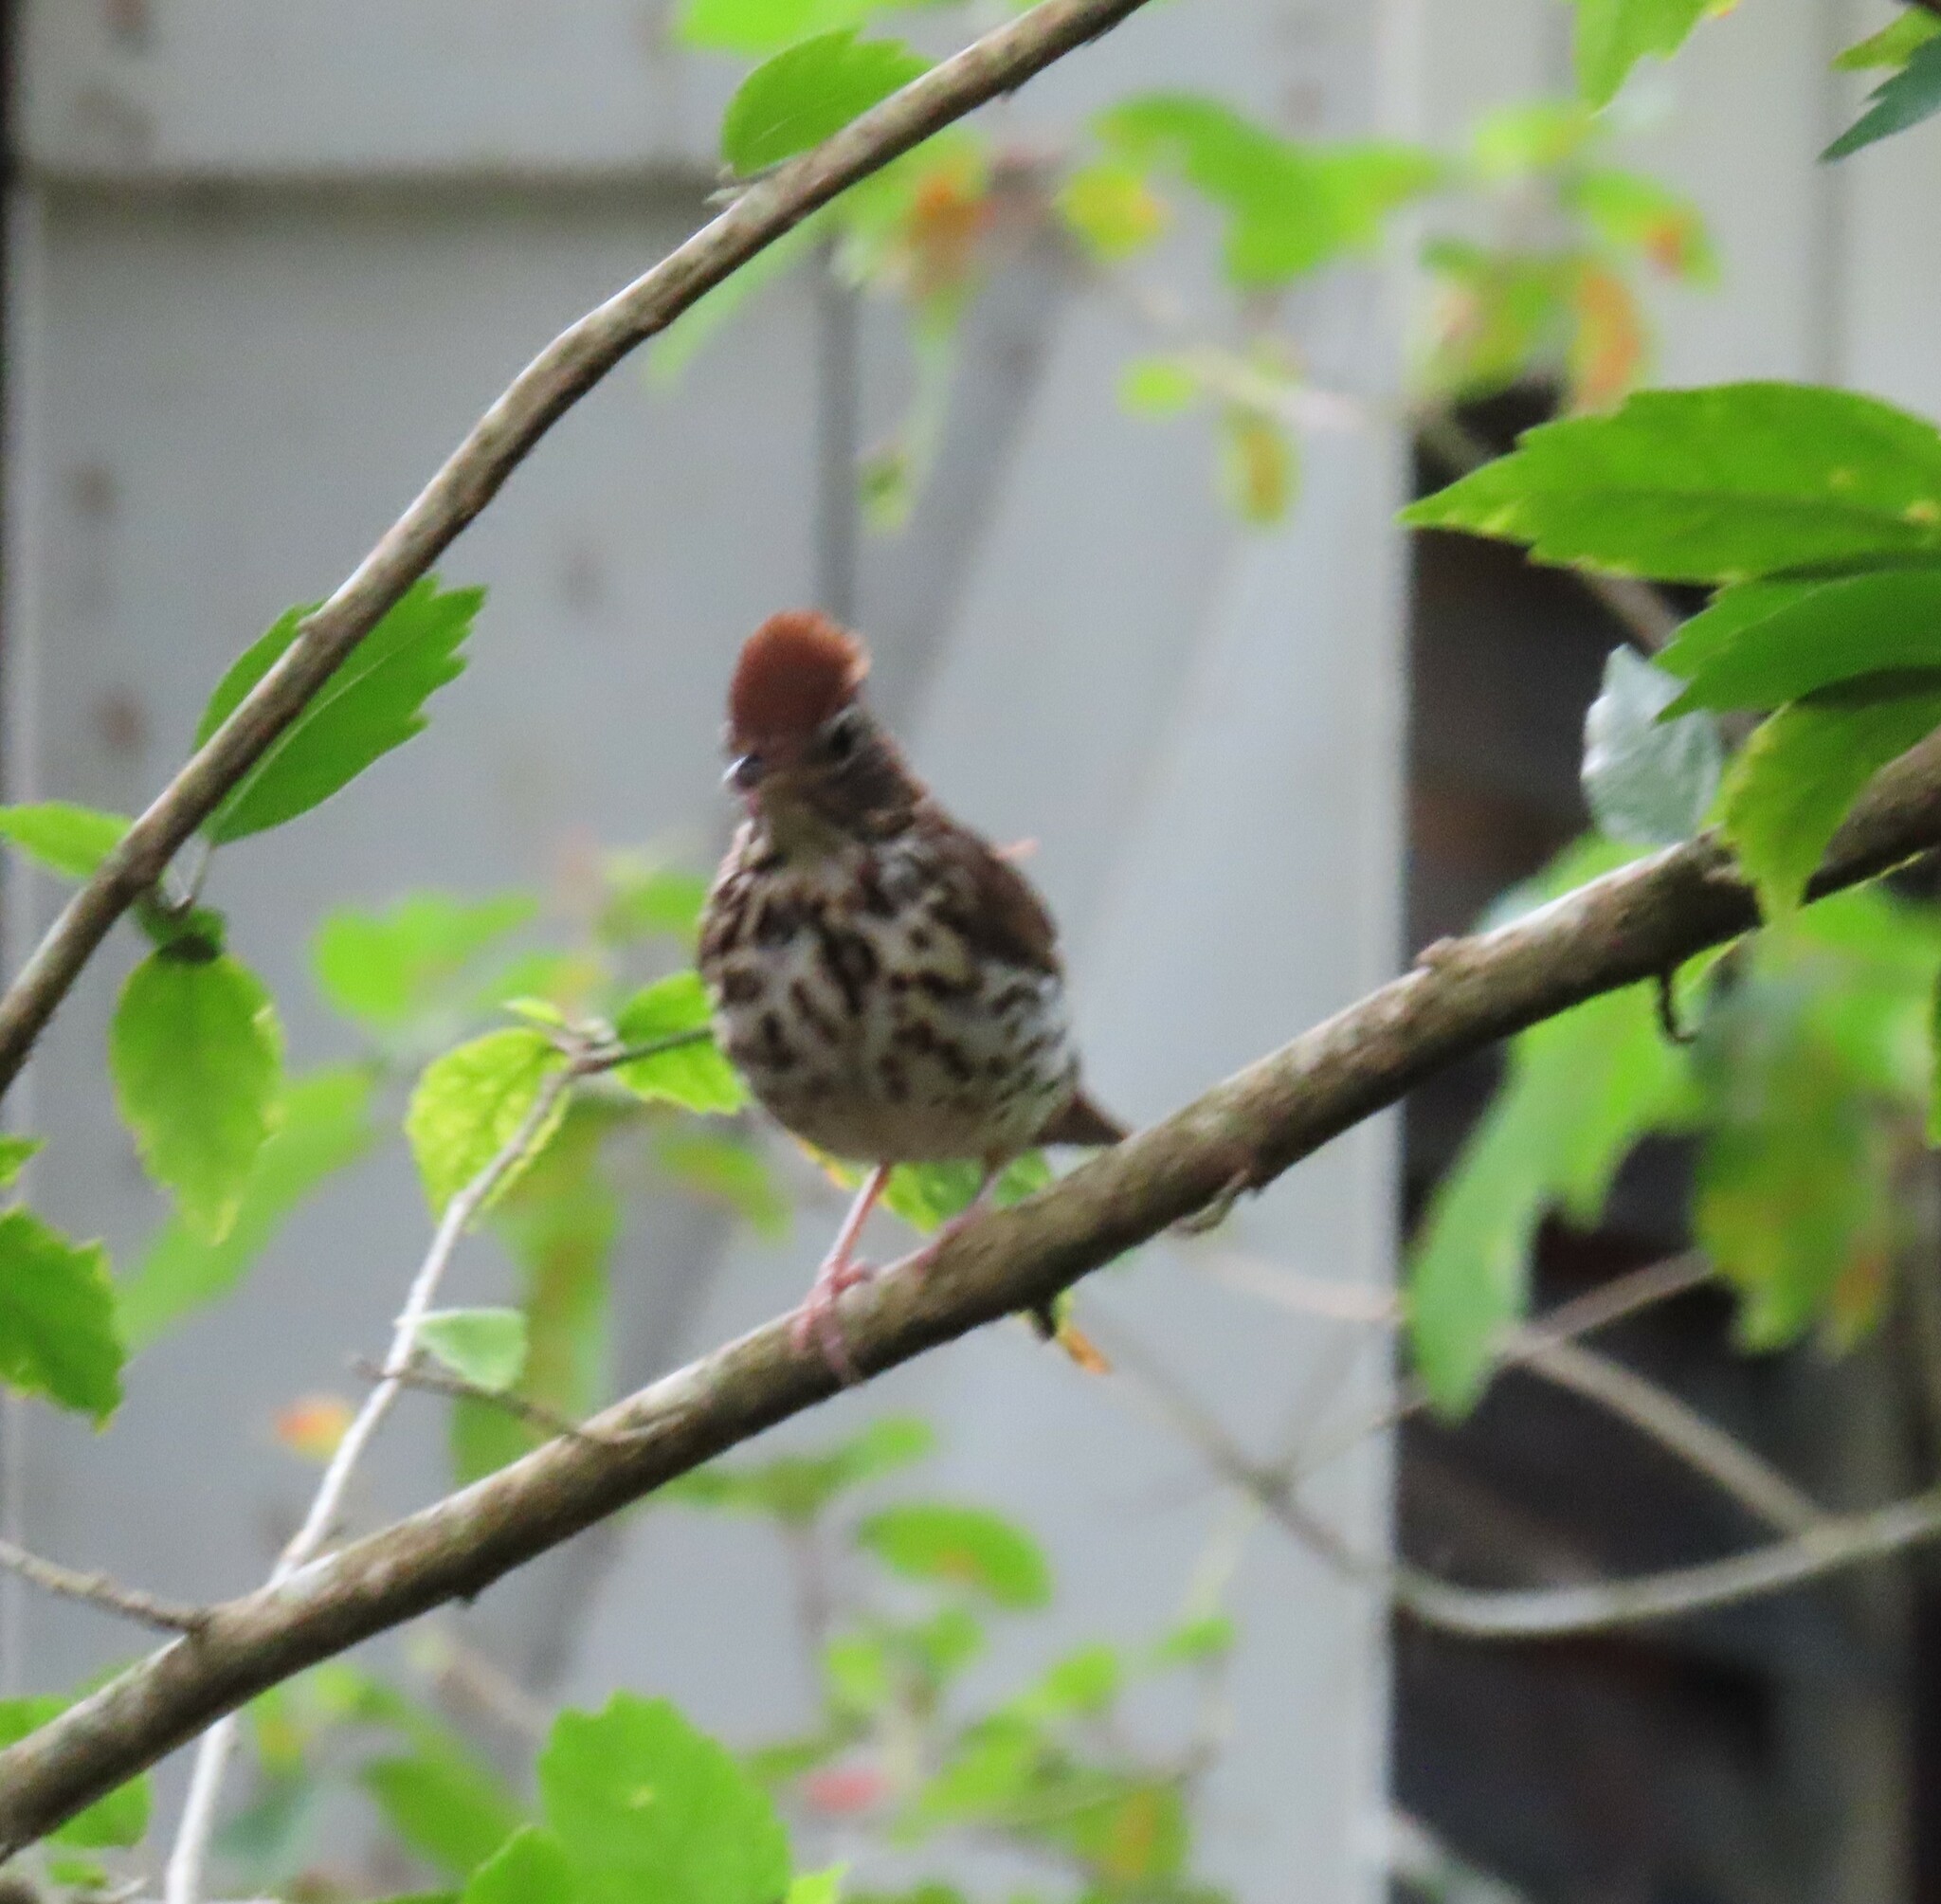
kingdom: Animalia
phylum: Chordata
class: Aves
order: Passeriformes
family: Turdidae
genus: Hylocichla
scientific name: Hylocichla mustelina
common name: Wood thrush
